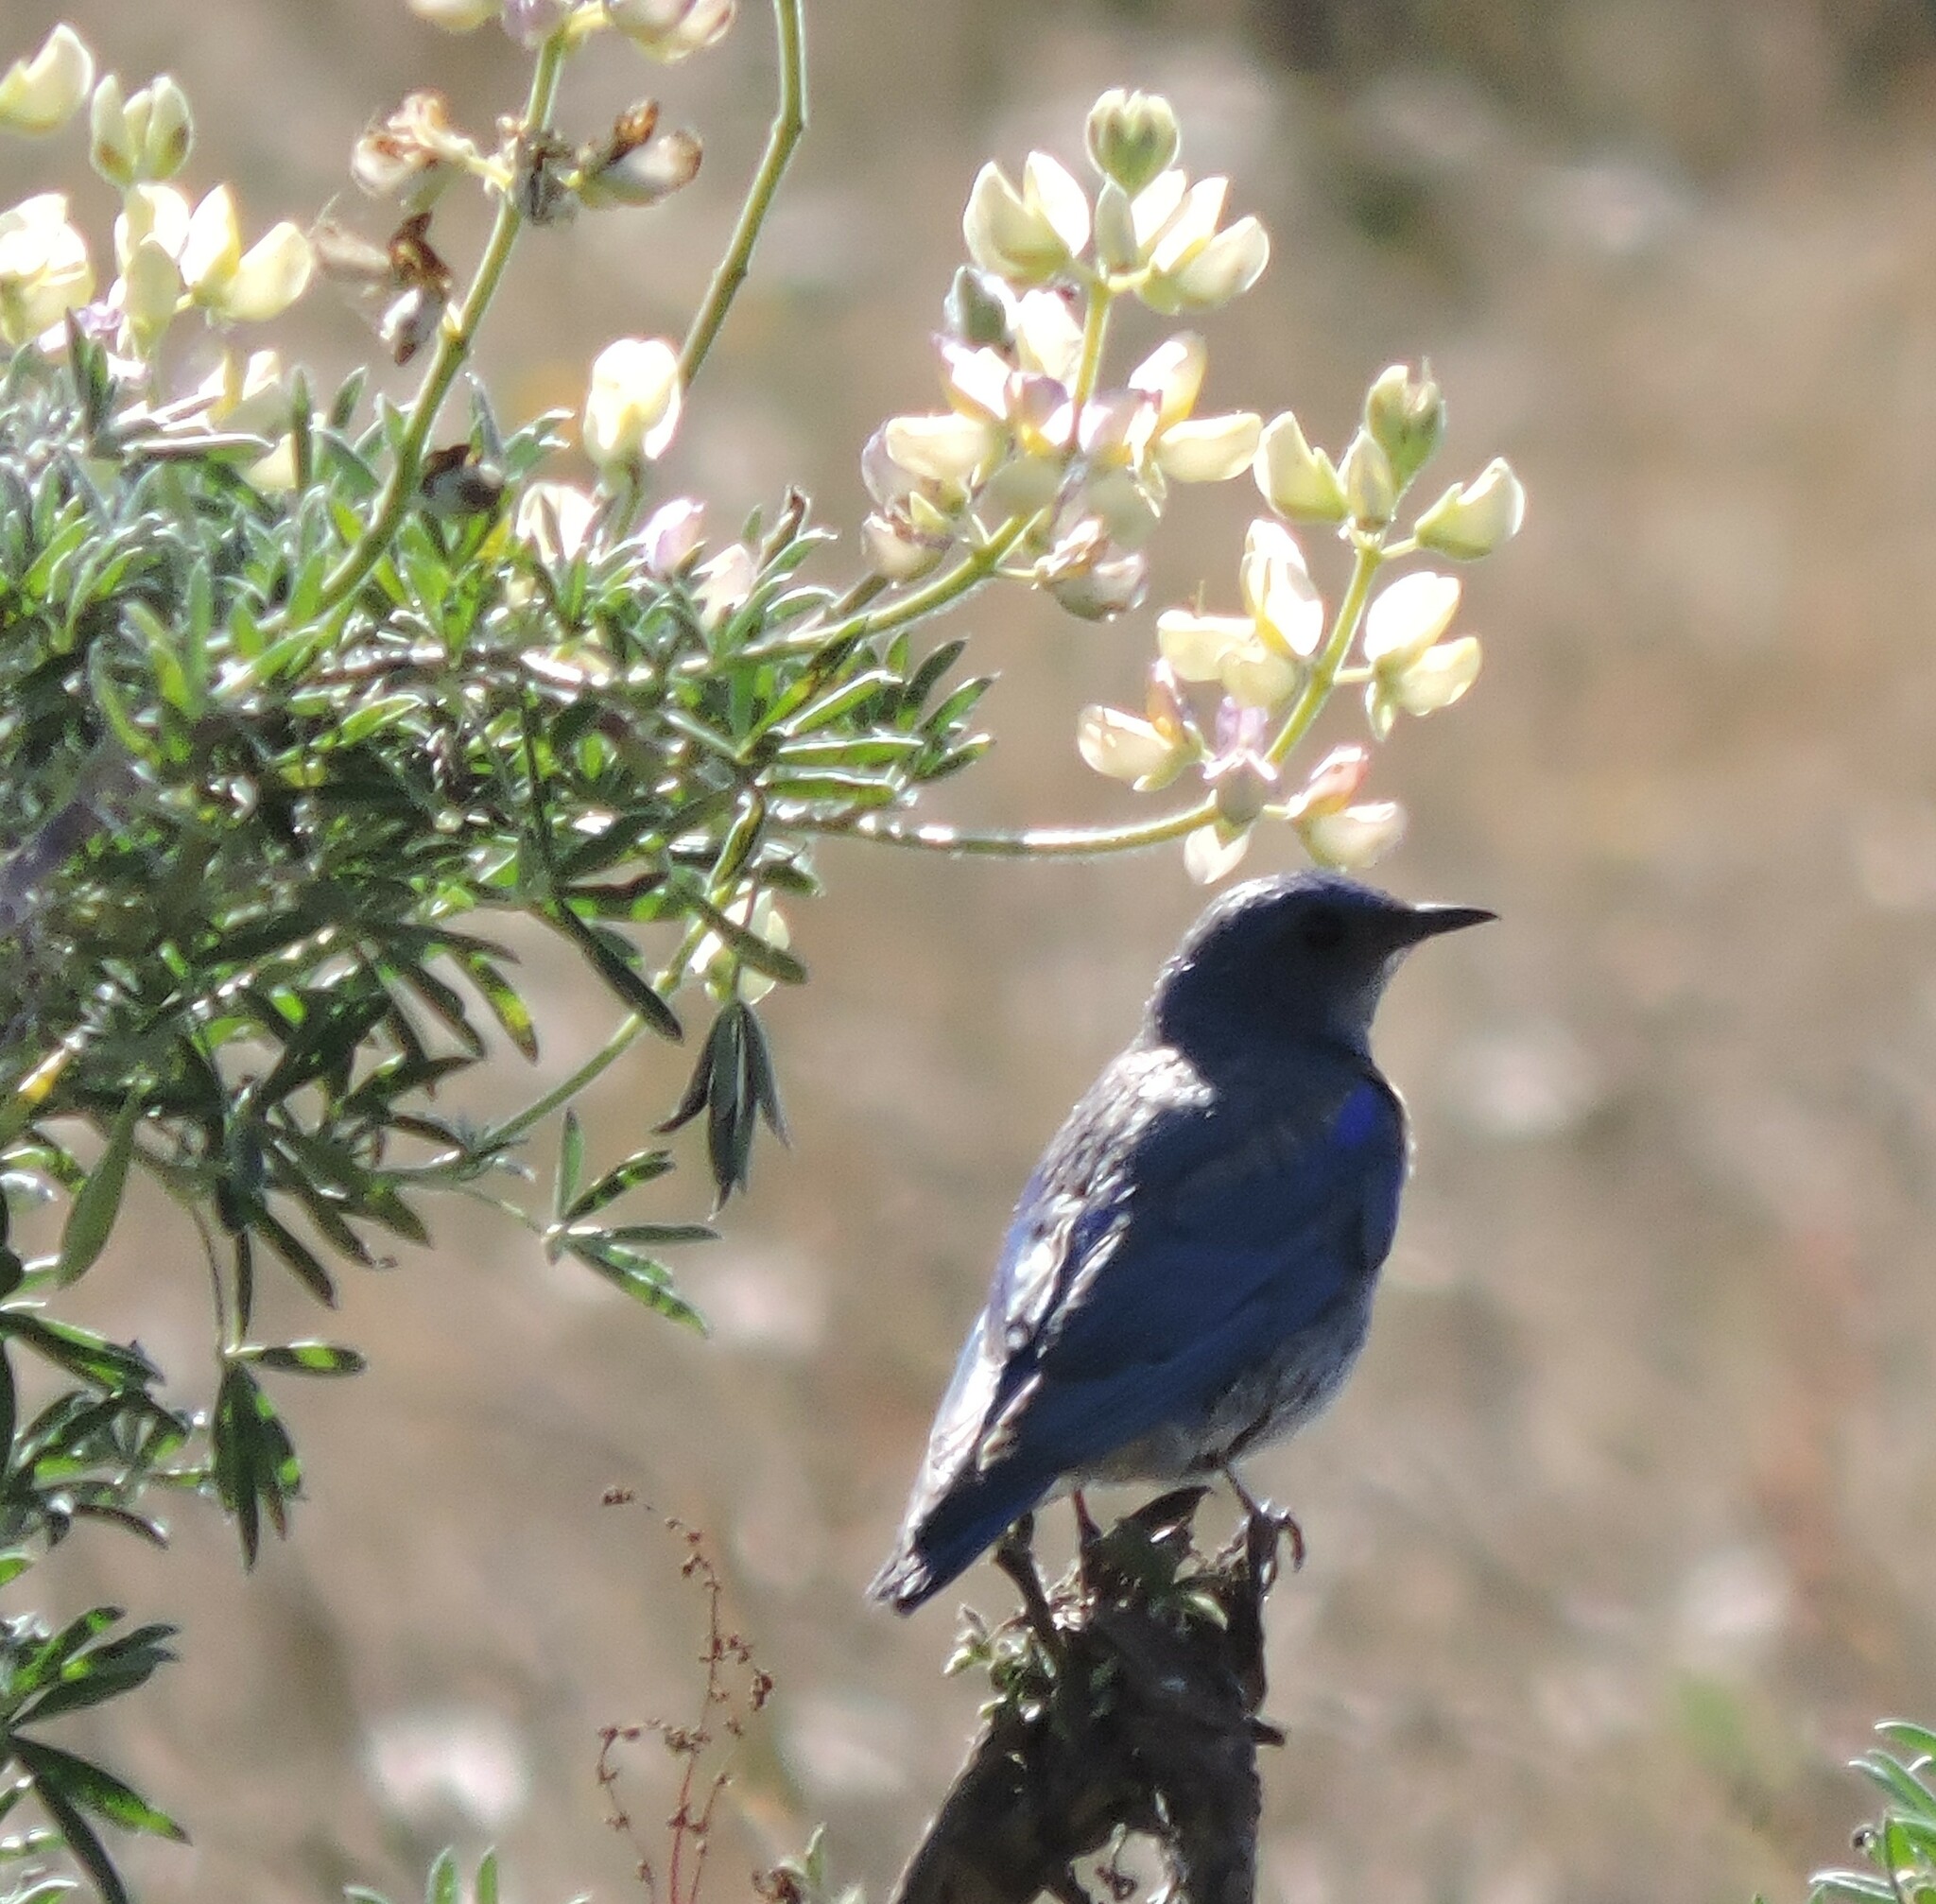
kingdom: Animalia
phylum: Chordata
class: Aves
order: Passeriformes
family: Turdidae
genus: Sialia
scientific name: Sialia mexicana
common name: Western bluebird
